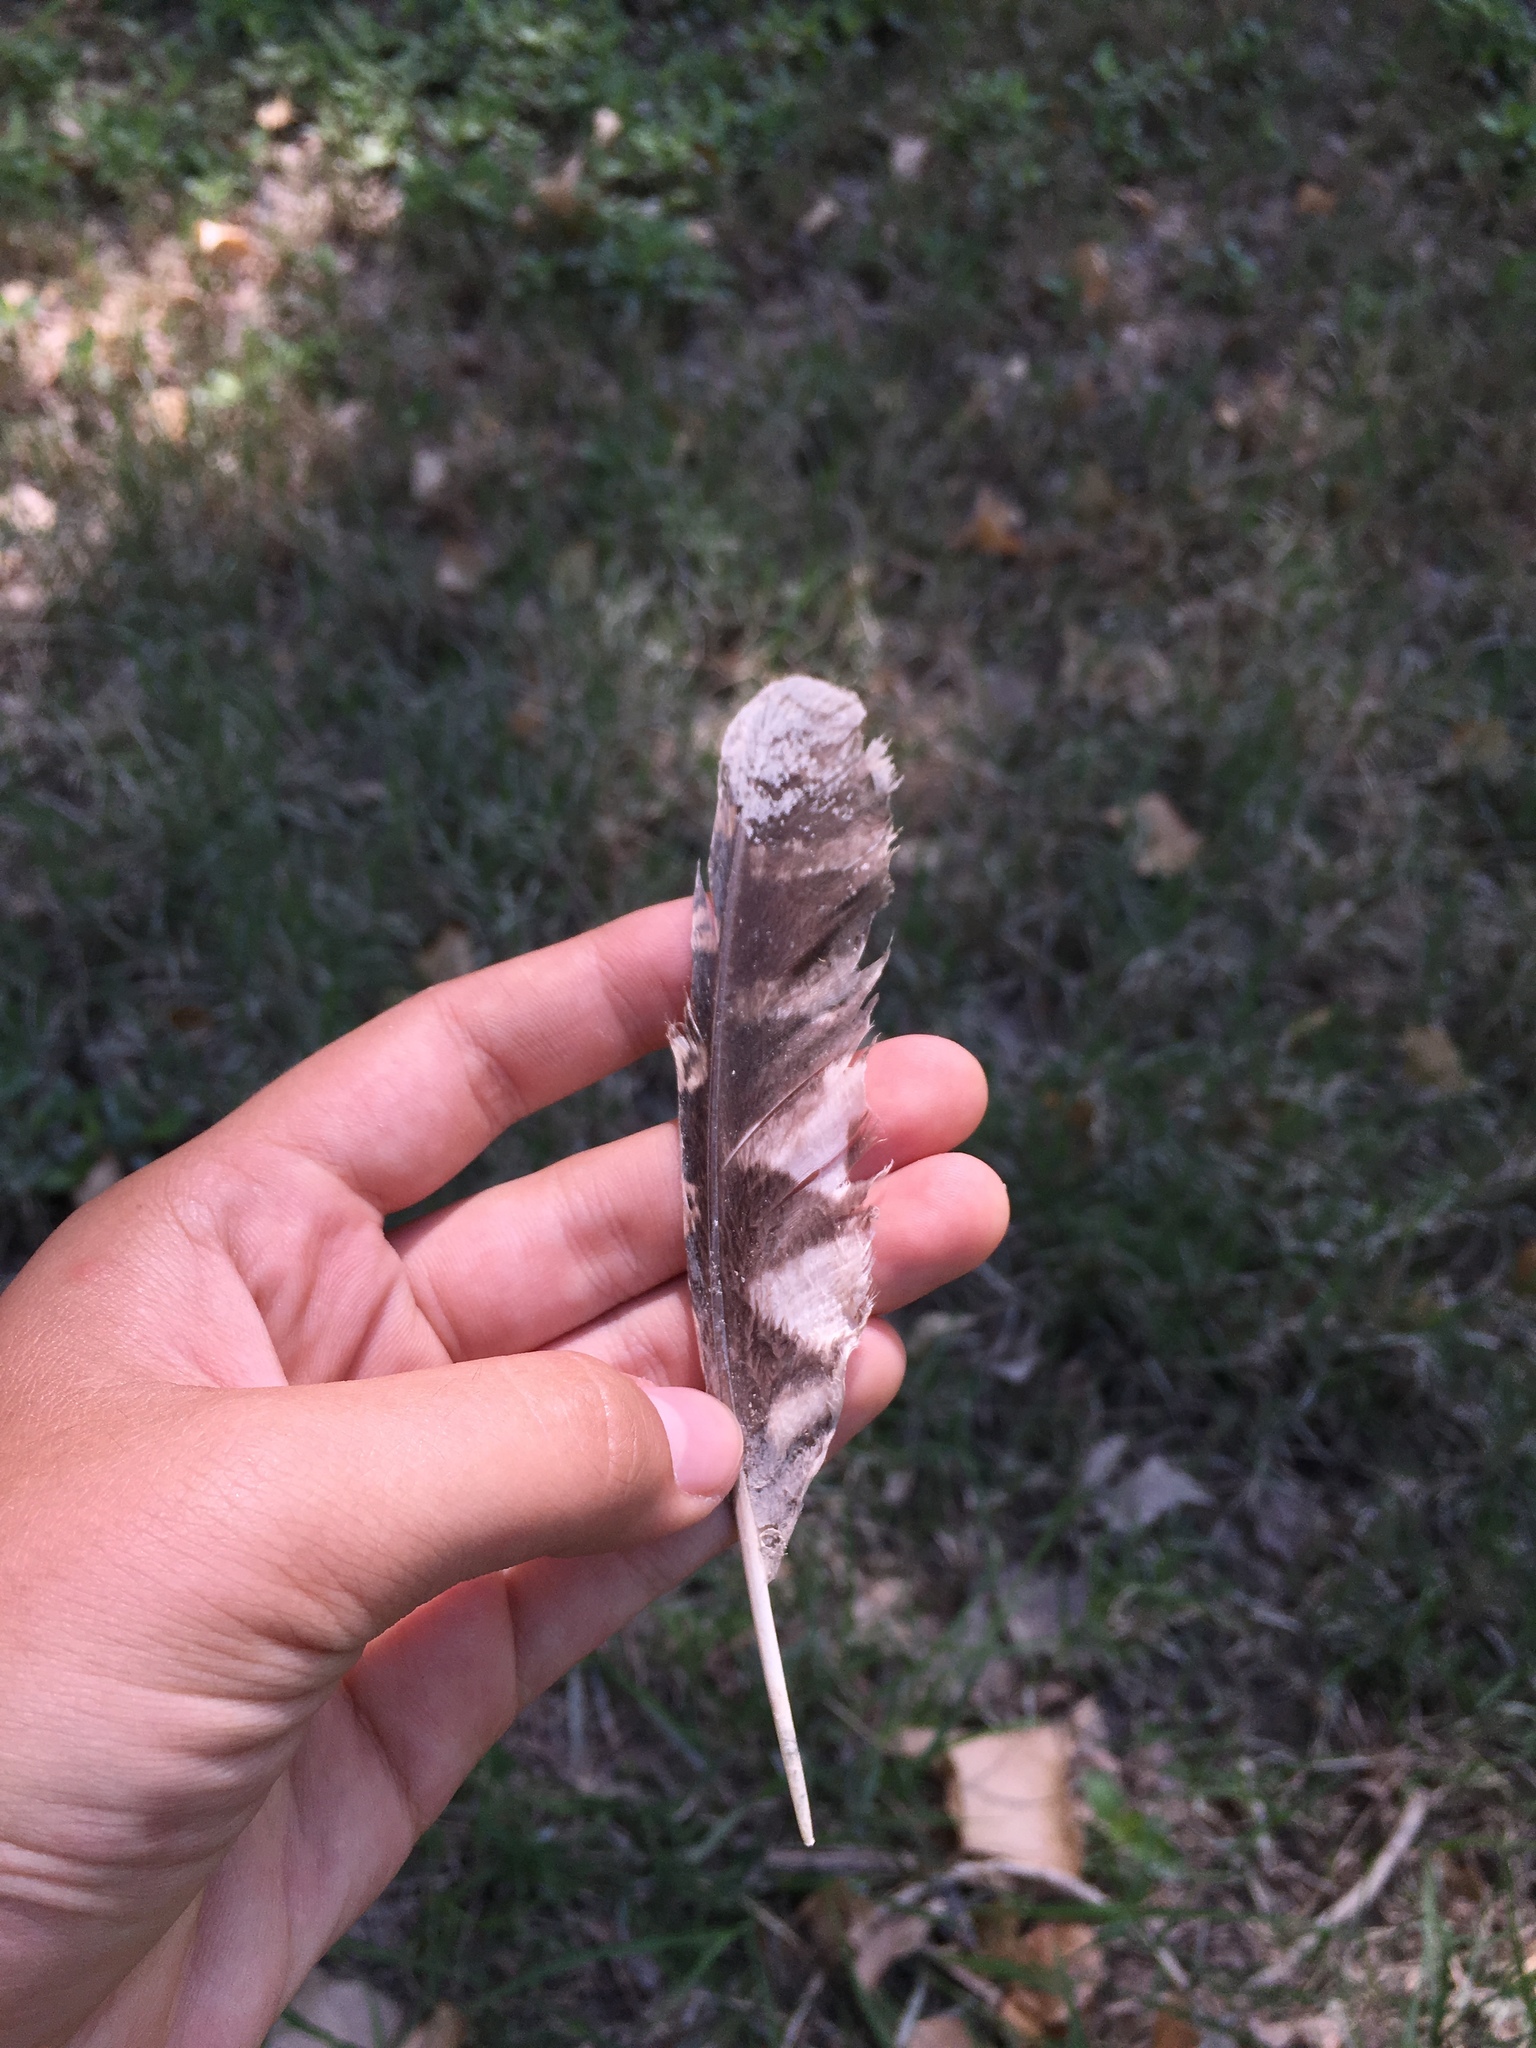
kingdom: Animalia
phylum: Chordata
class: Aves
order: Strigiformes
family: Strigidae
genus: Megascops
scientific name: Megascops kennicottii
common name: Western screech-owl
